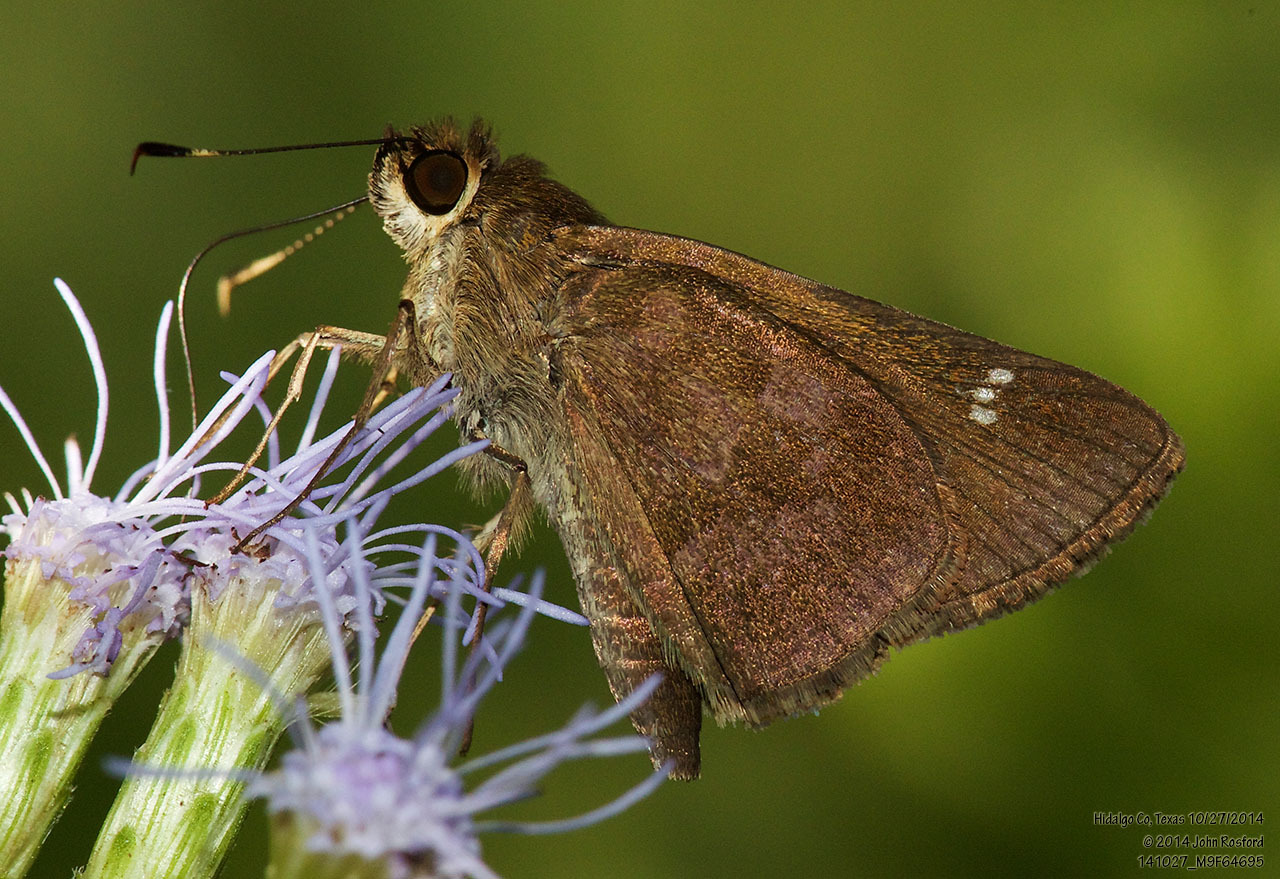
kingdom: Animalia
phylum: Arthropoda
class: Insecta
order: Lepidoptera
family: Hesperiidae
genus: Cymaenes
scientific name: Cymaenes
